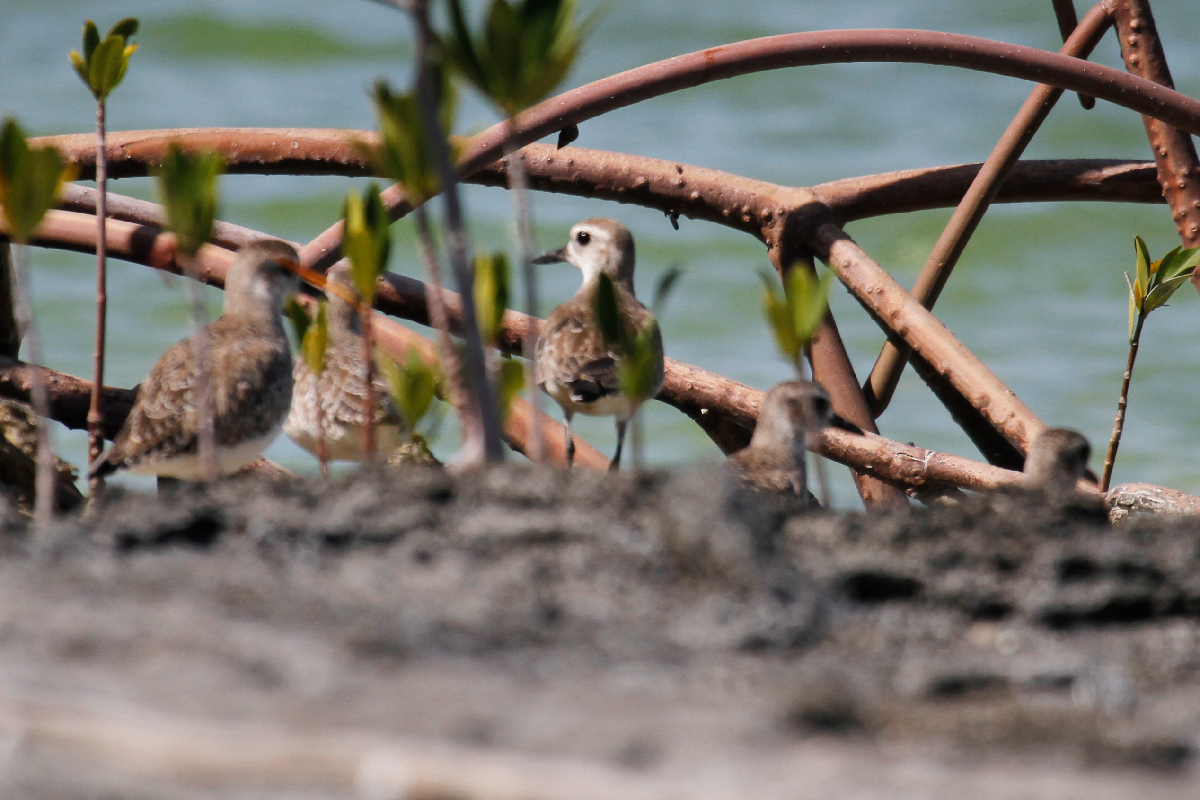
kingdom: Animalia
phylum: Chordata
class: Aves
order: Charadriiformes
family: Charadriidae
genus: Pluvialis
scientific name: Pluvialis squatarola
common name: Grey plover
